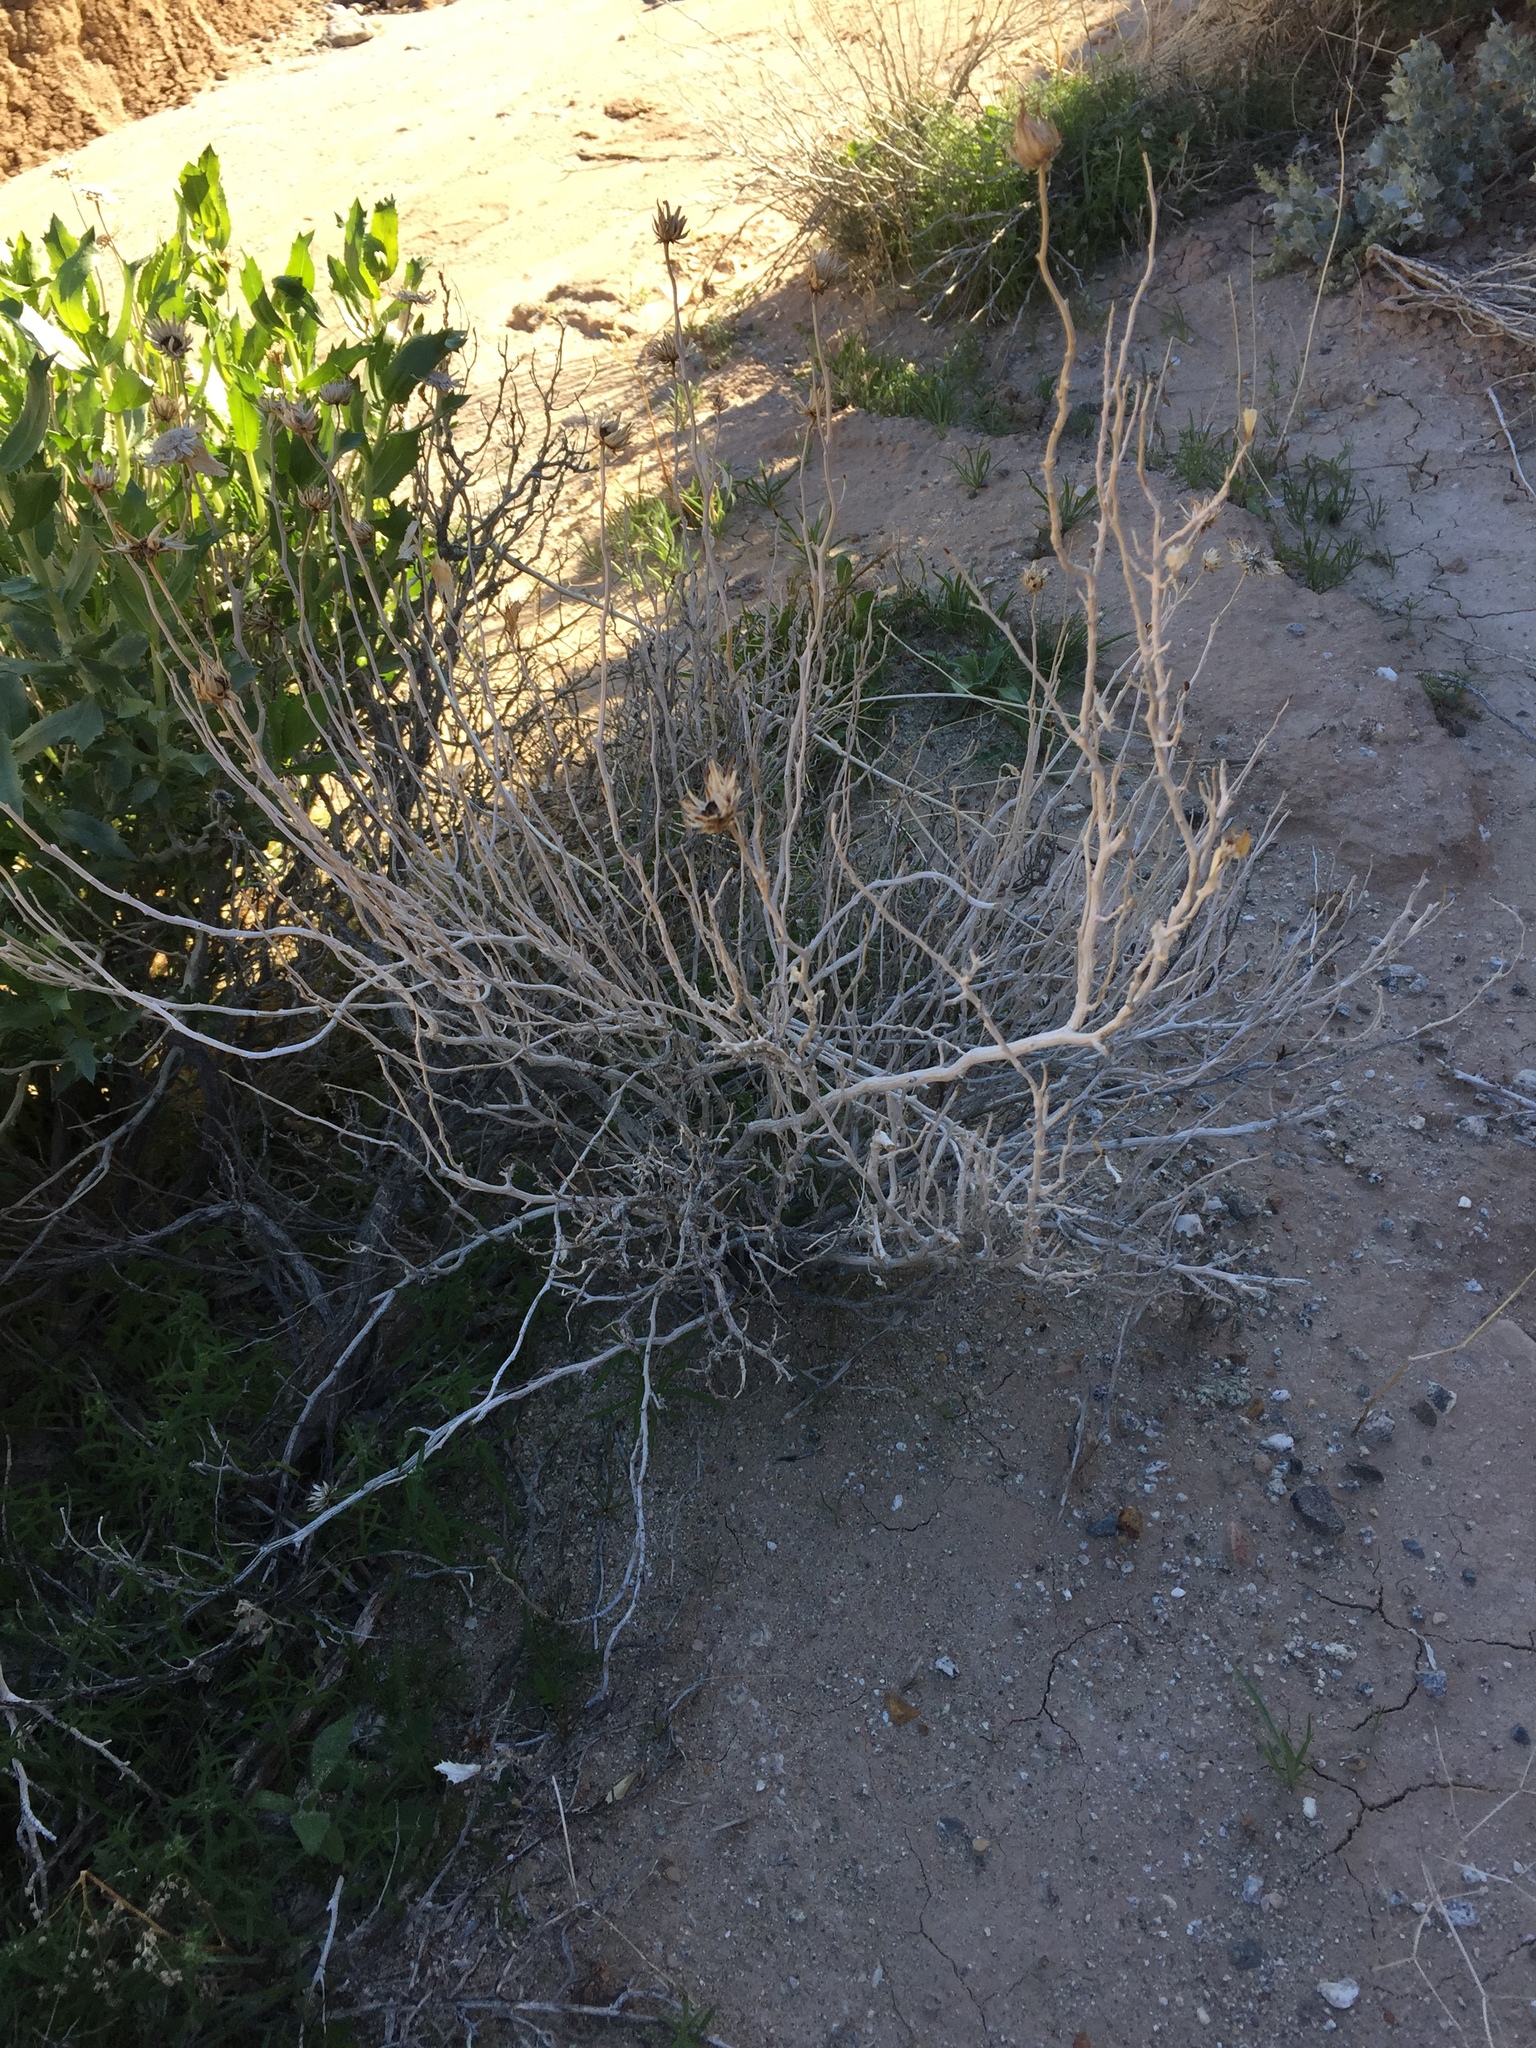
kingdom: Plantae
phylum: Tracheophyta
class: Magnoliopsida
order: Asterales
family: Asteraceae
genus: Xylorhiza
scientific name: Xylorhiza orcuttii
